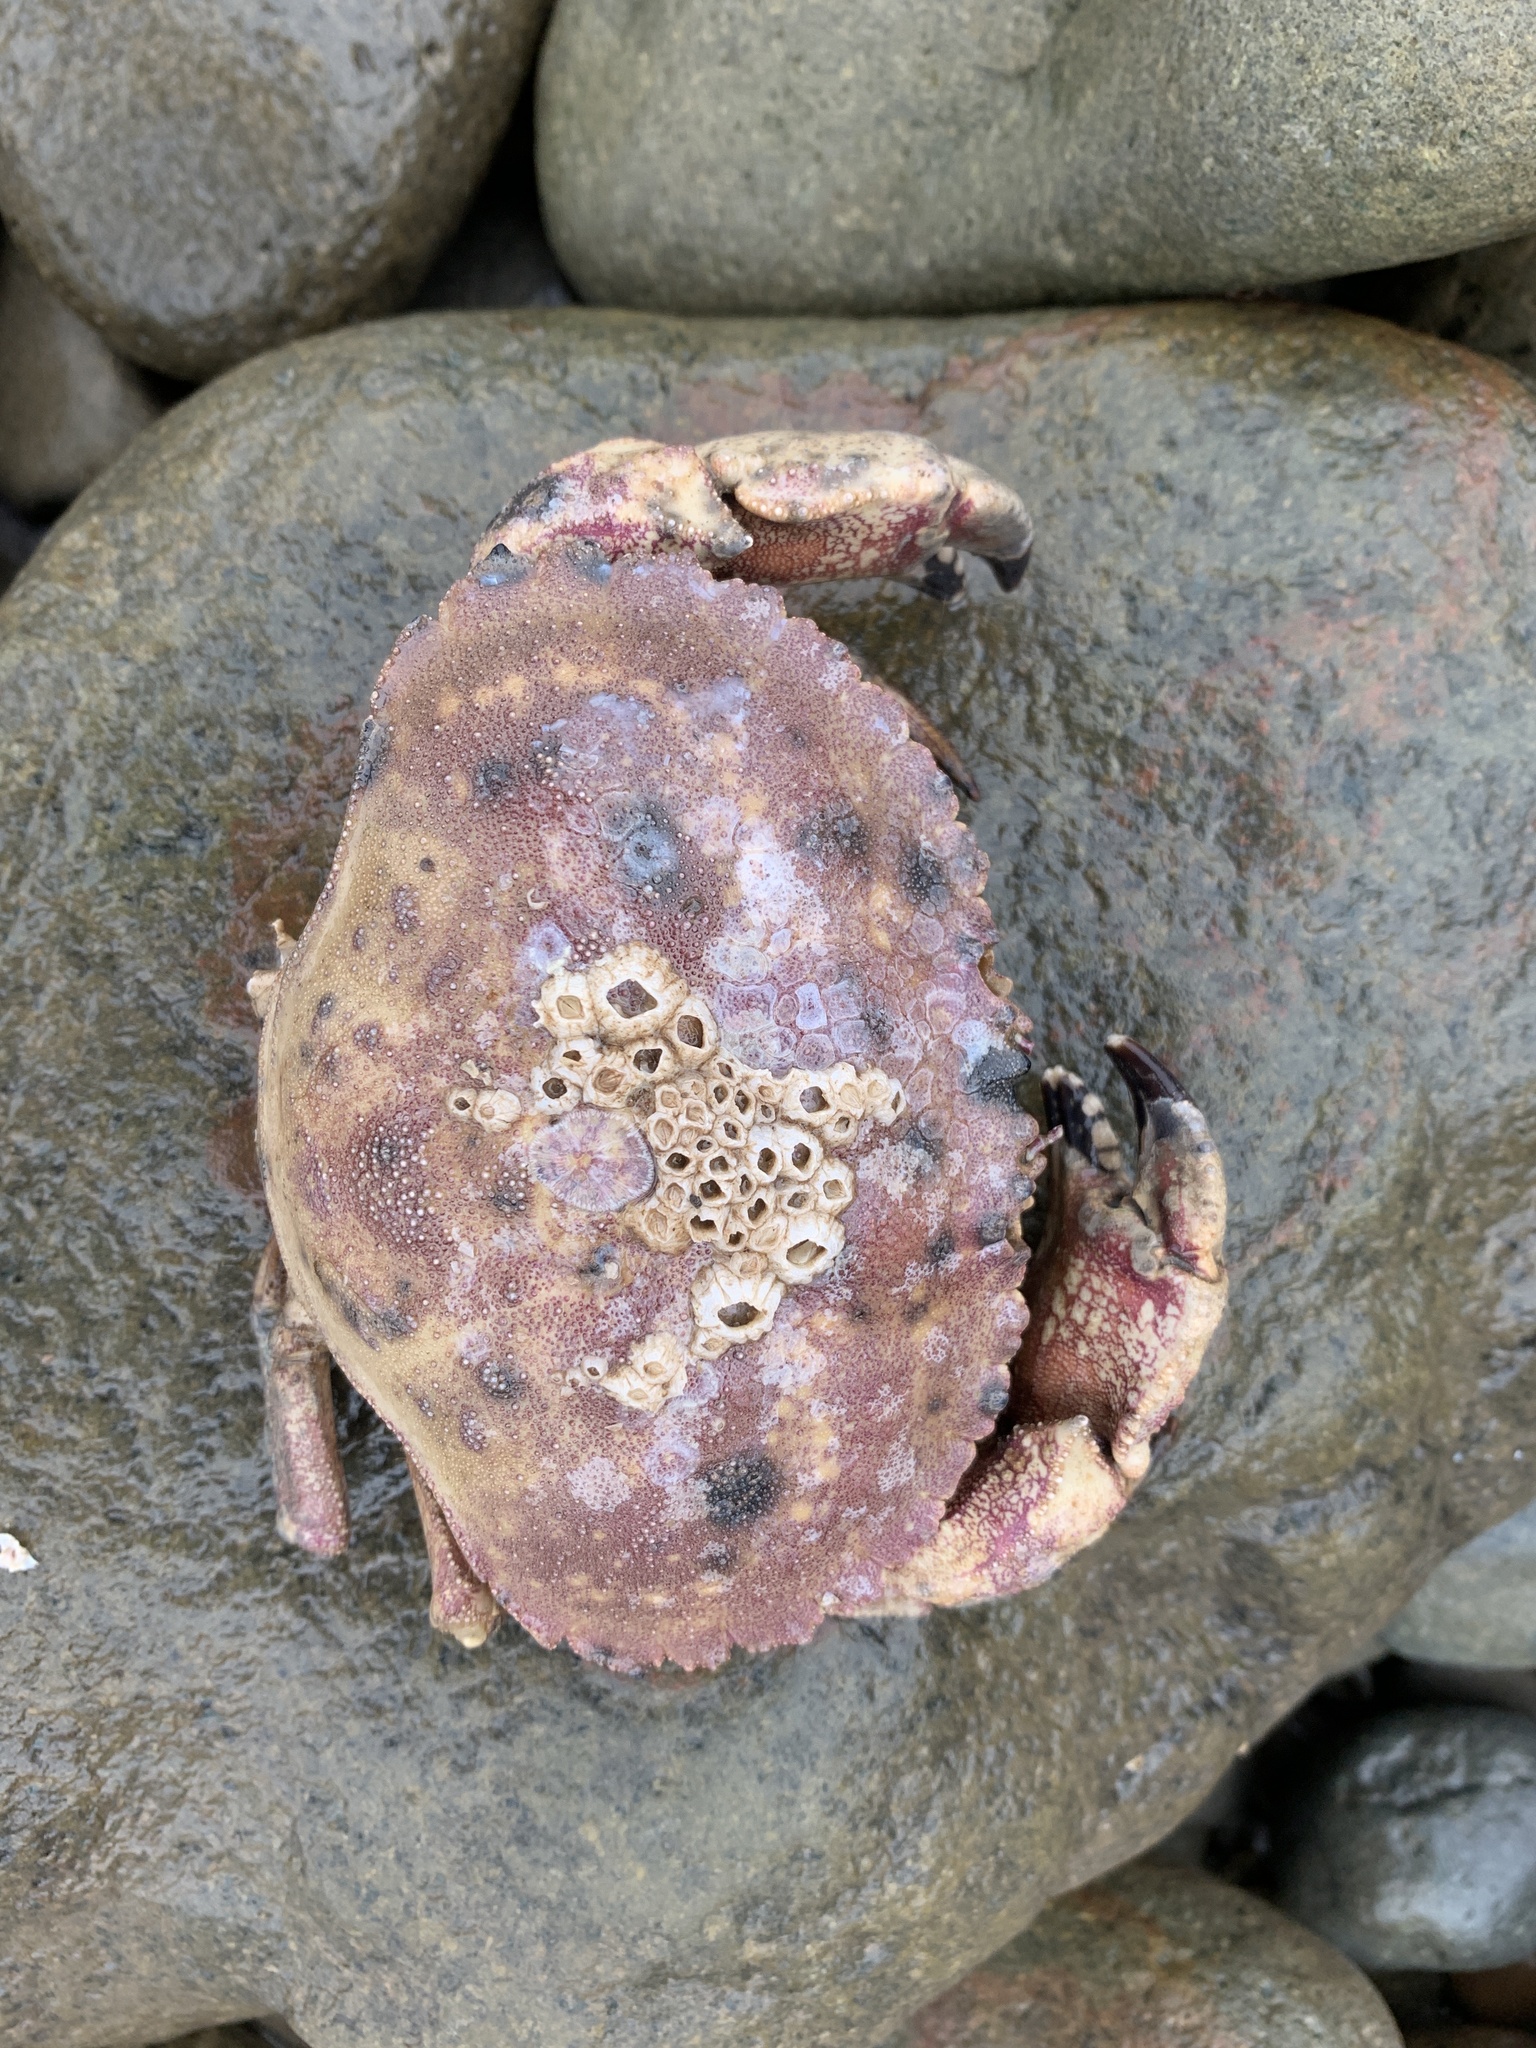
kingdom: Animalia
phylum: Arthropoda
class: Malacostraca
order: Decapoda
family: Cancridae
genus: Cancer
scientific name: Cancer borealis
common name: Jonah crab
